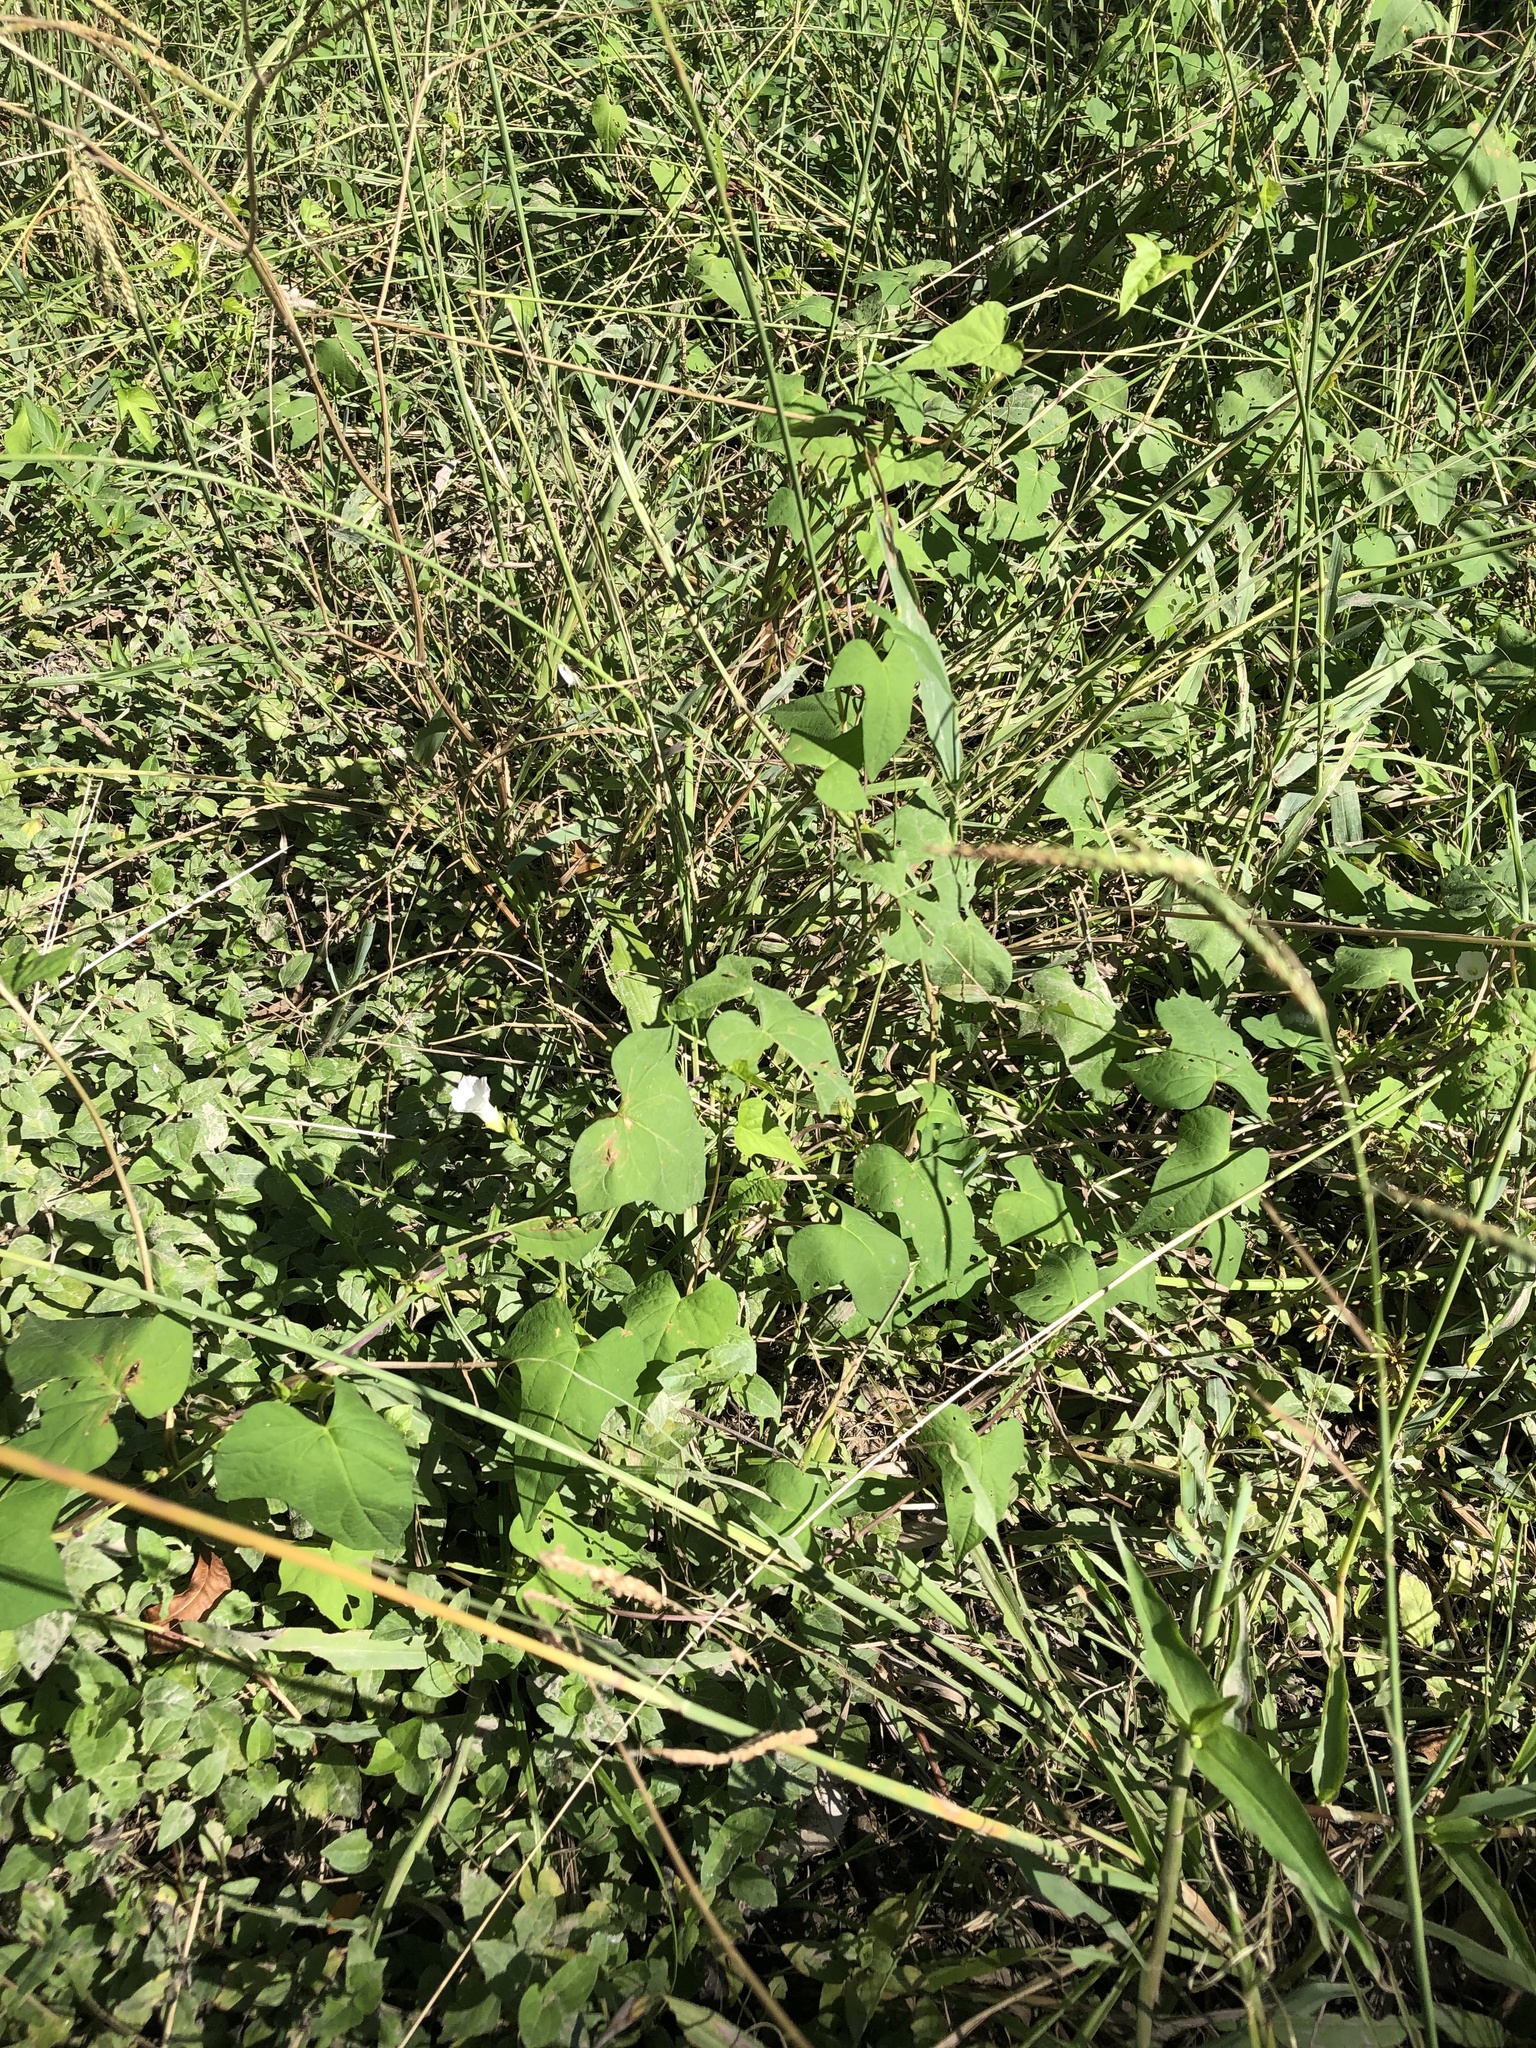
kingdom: Plantae
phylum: Tracheophyta
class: Magnoliopsida
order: Solanales
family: Convolvulaceae
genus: Ipomoea
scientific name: Ipomoea lacunosa
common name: White morning-glory
